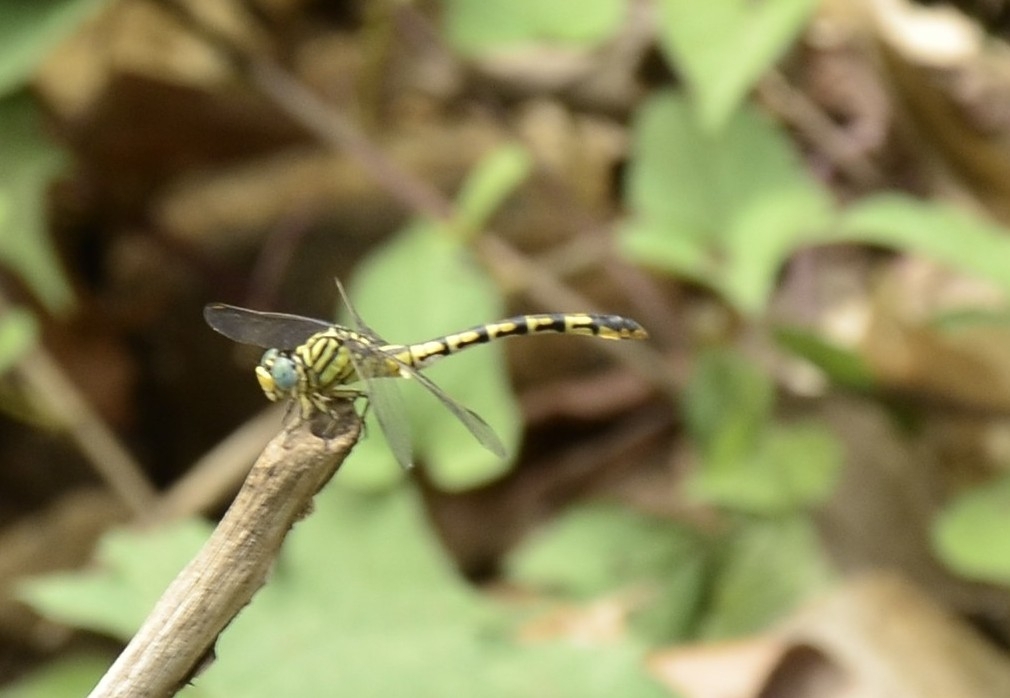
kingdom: Animalia
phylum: Arthropoda
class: Insecta
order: Odonata
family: Gomphidae
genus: Paragomphus
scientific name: Paragomphus lineatus
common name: Lined hooktail
